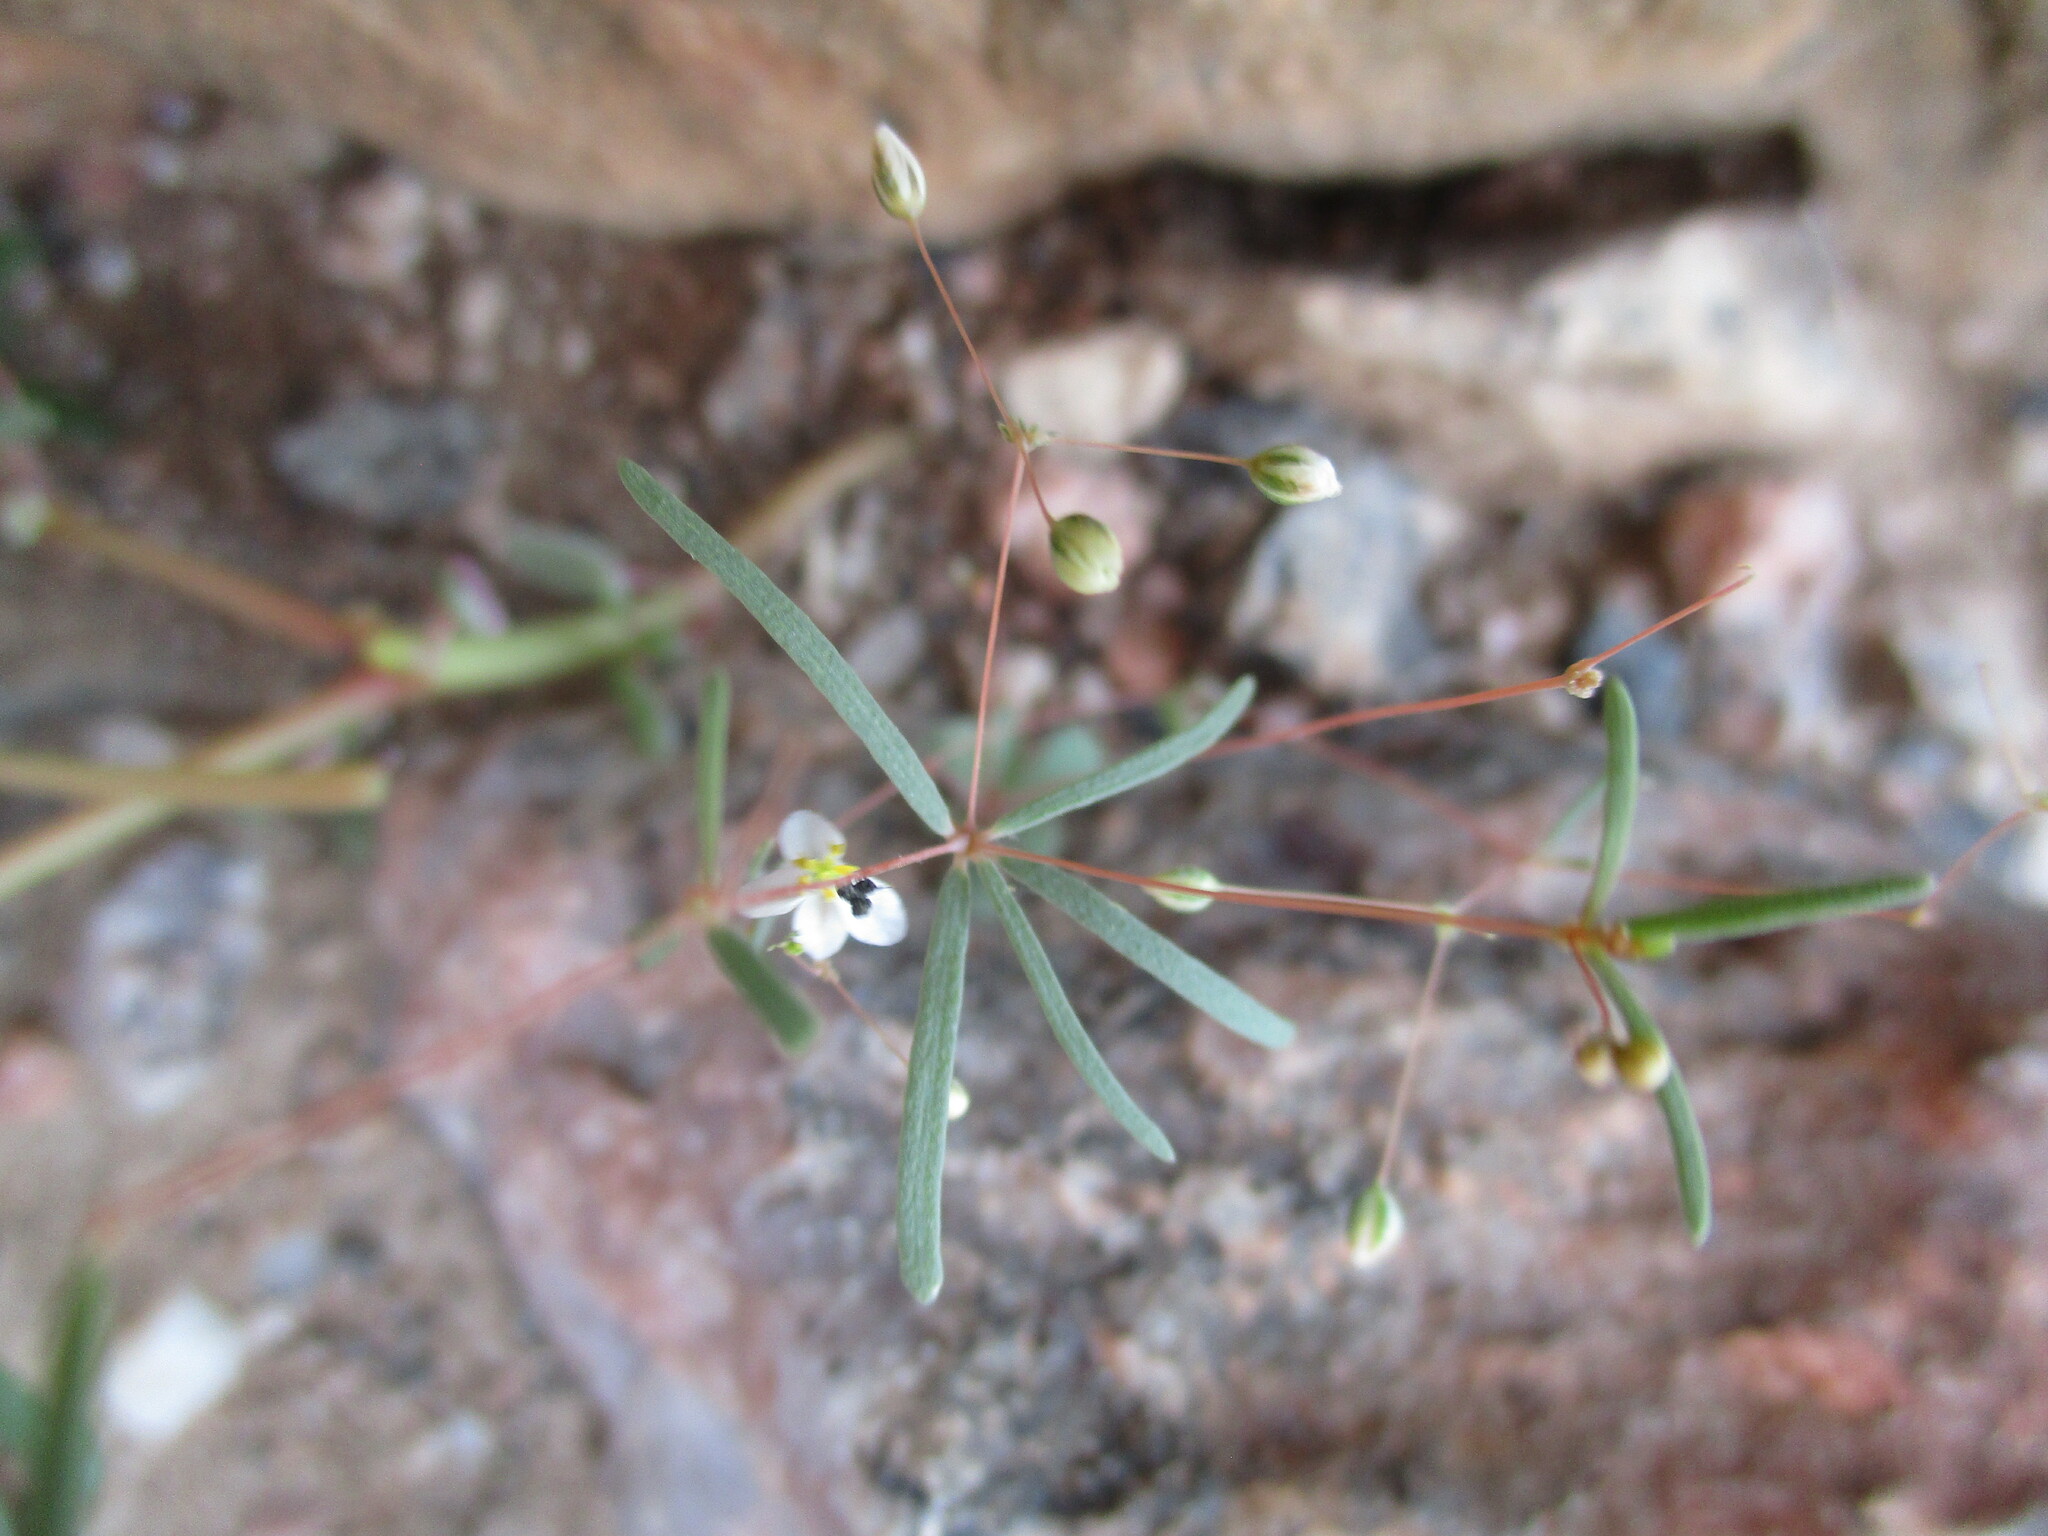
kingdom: Plantae
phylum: Tracheophyta
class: Magnoliopsida
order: Caryophyllales
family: Molluginaceae
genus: Hypertelis
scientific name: Hypertelis cerviana
